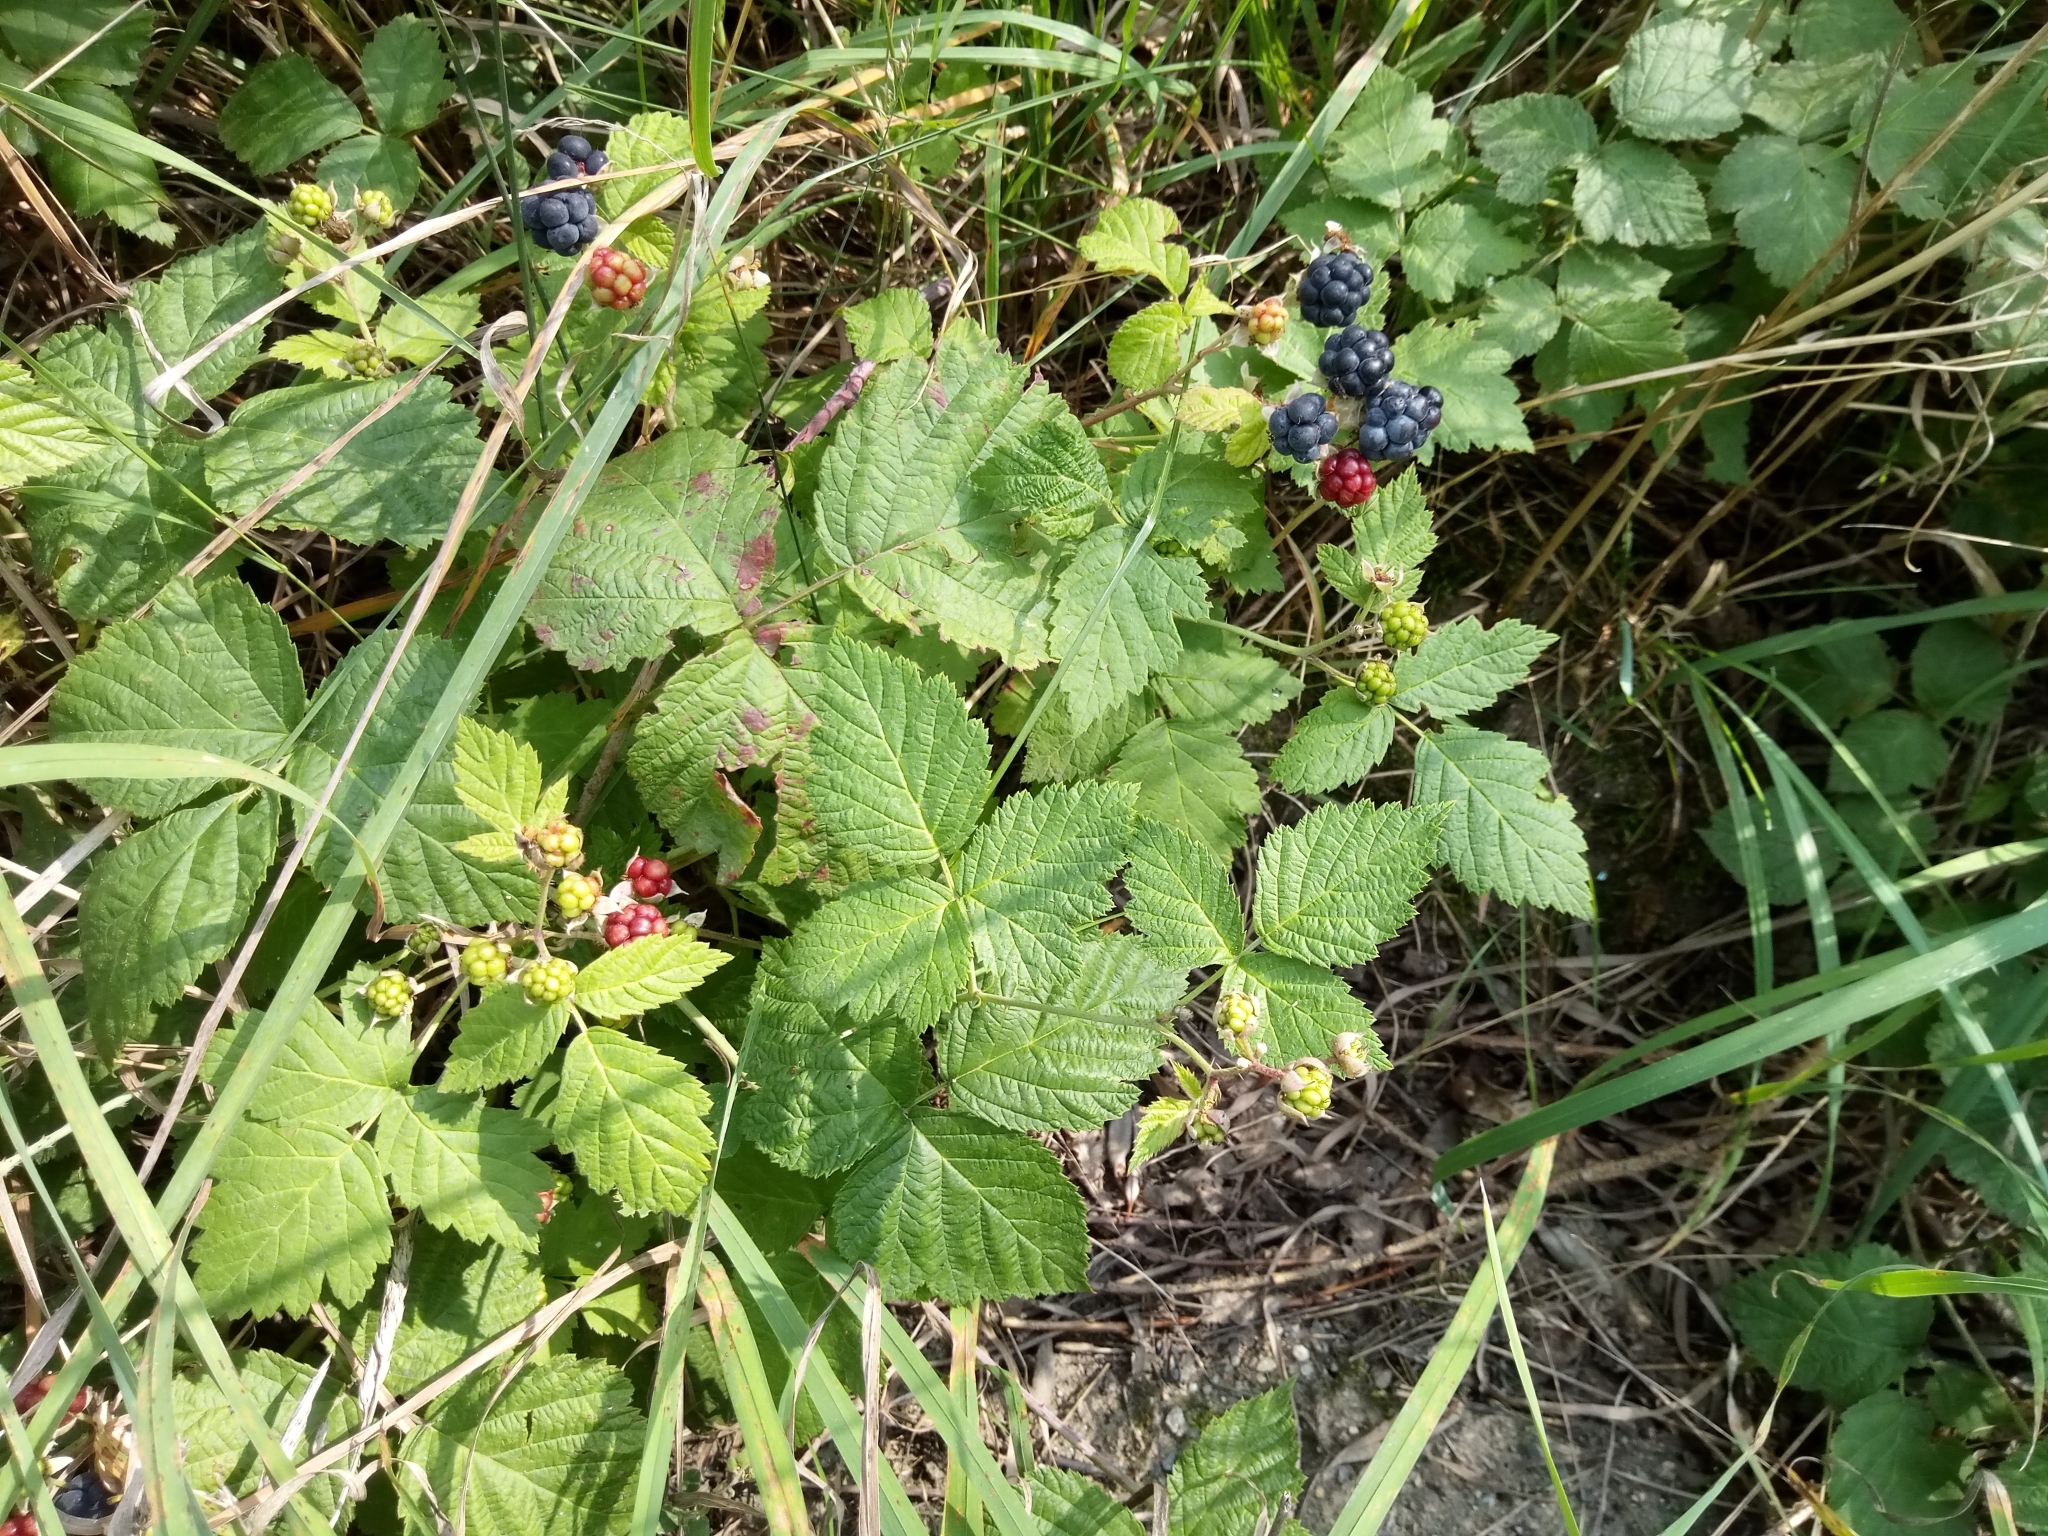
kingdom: Plantae
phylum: Tracheophyta
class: Magnoliopsida
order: Rosales
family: Rosaceae
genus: Rubus
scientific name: Rubus caesius
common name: Dewberry
